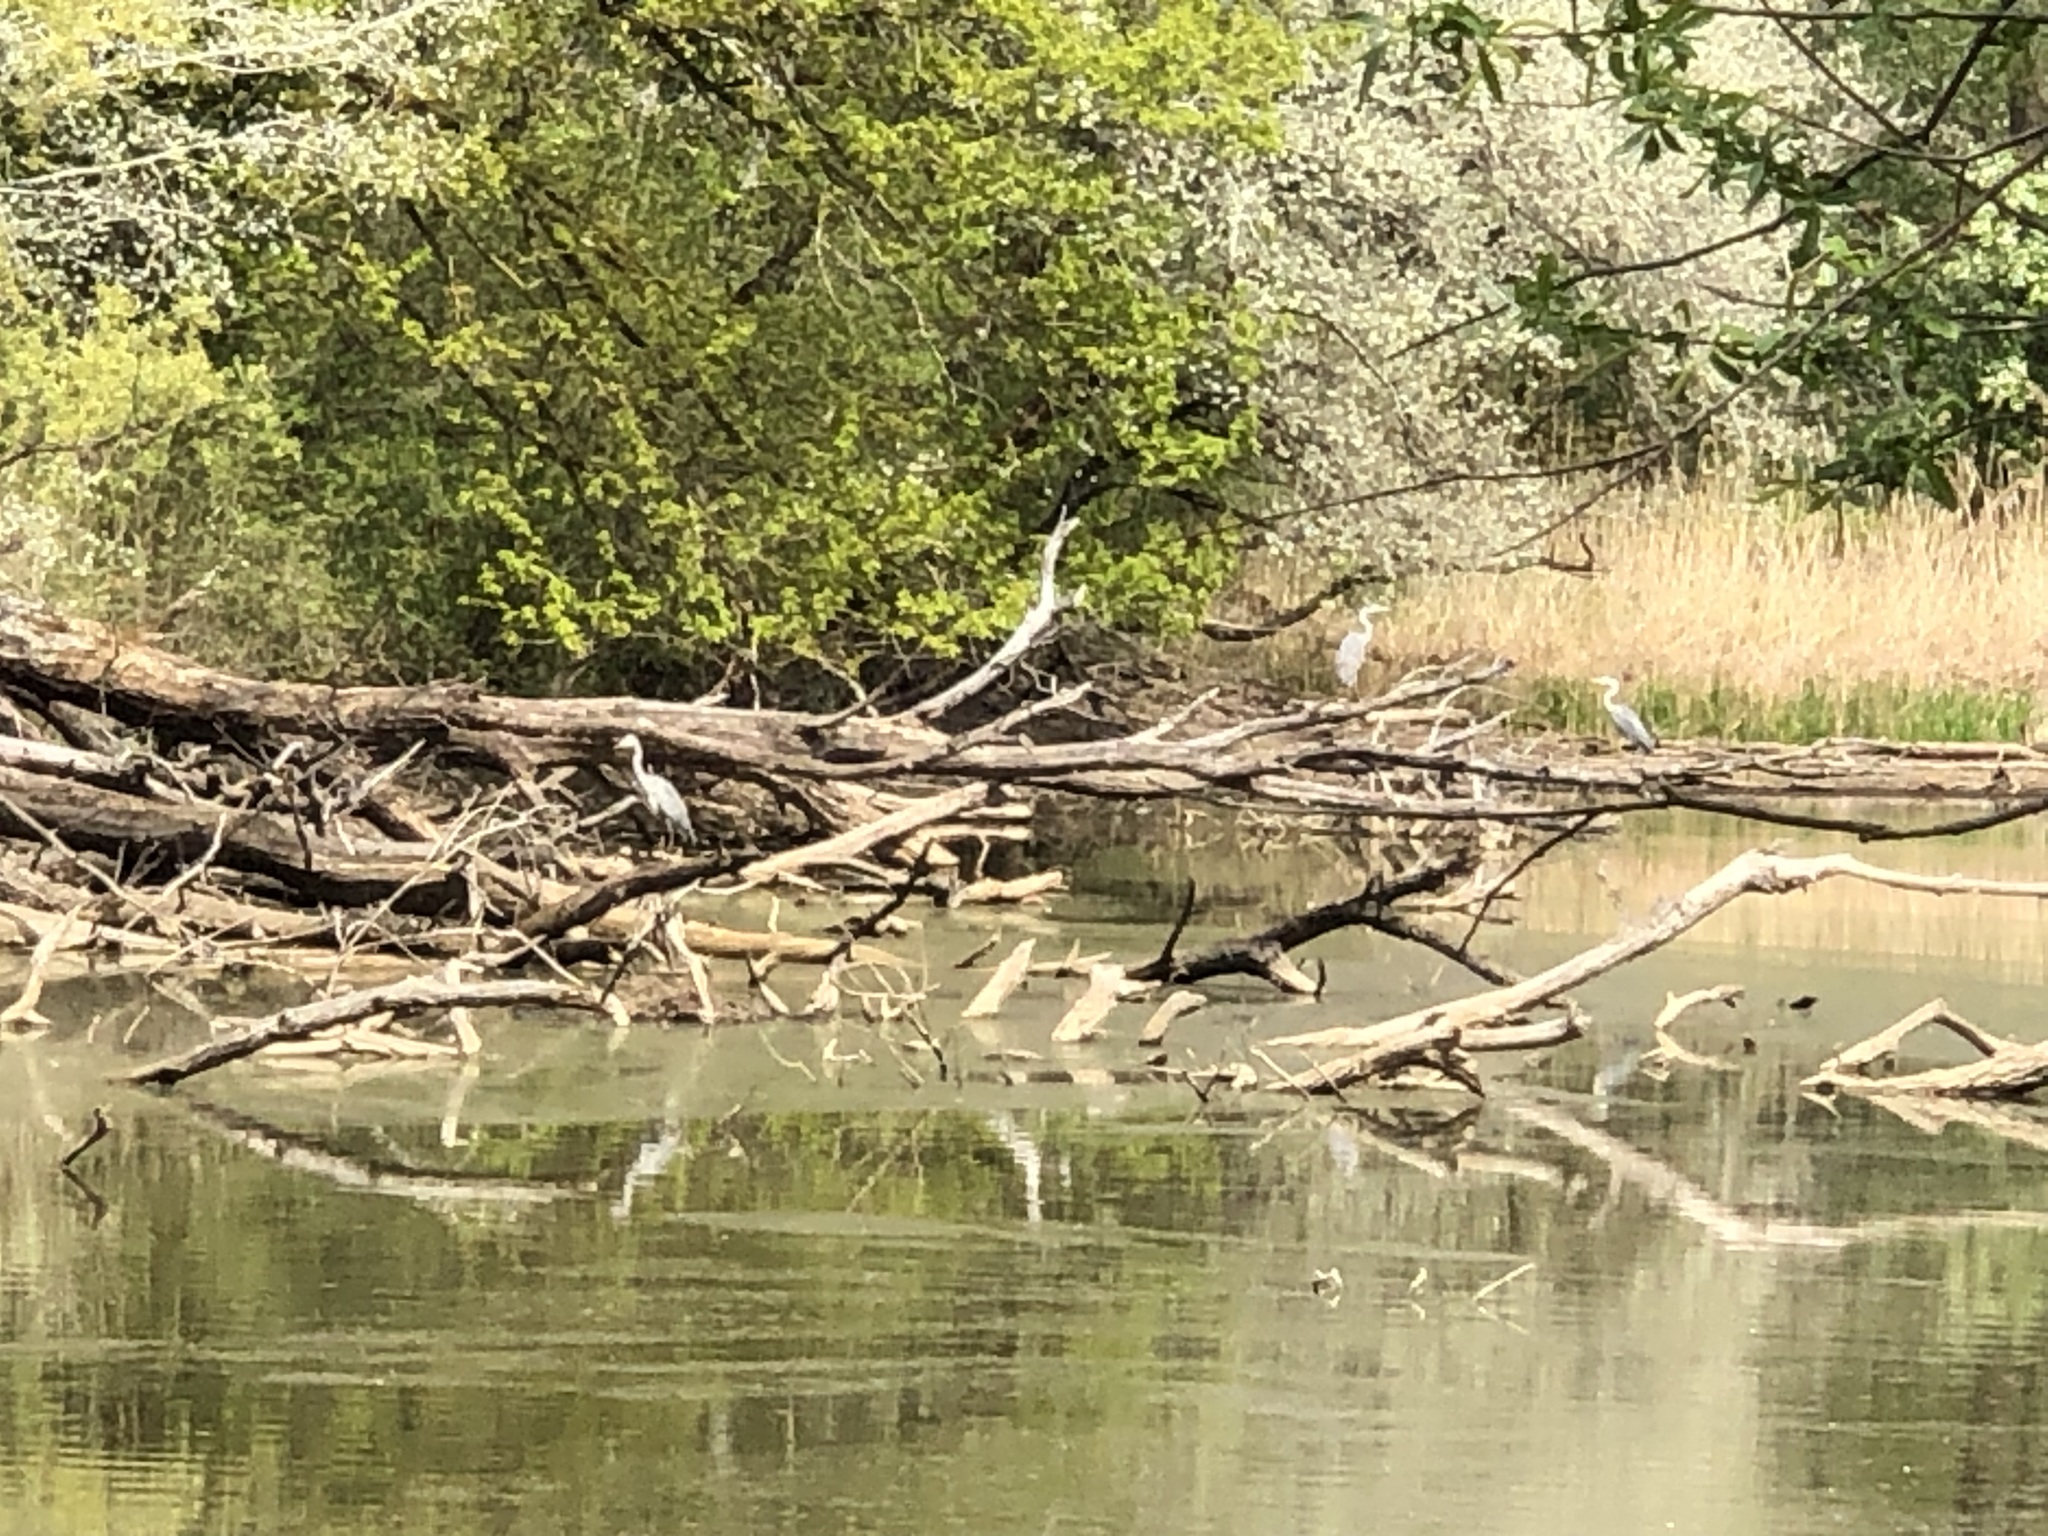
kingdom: Animalia
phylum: Chordata
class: Aves
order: Pelecaniformes
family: Ardeidae
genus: Ardea
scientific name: Ardea cinerea
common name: Grey heron
